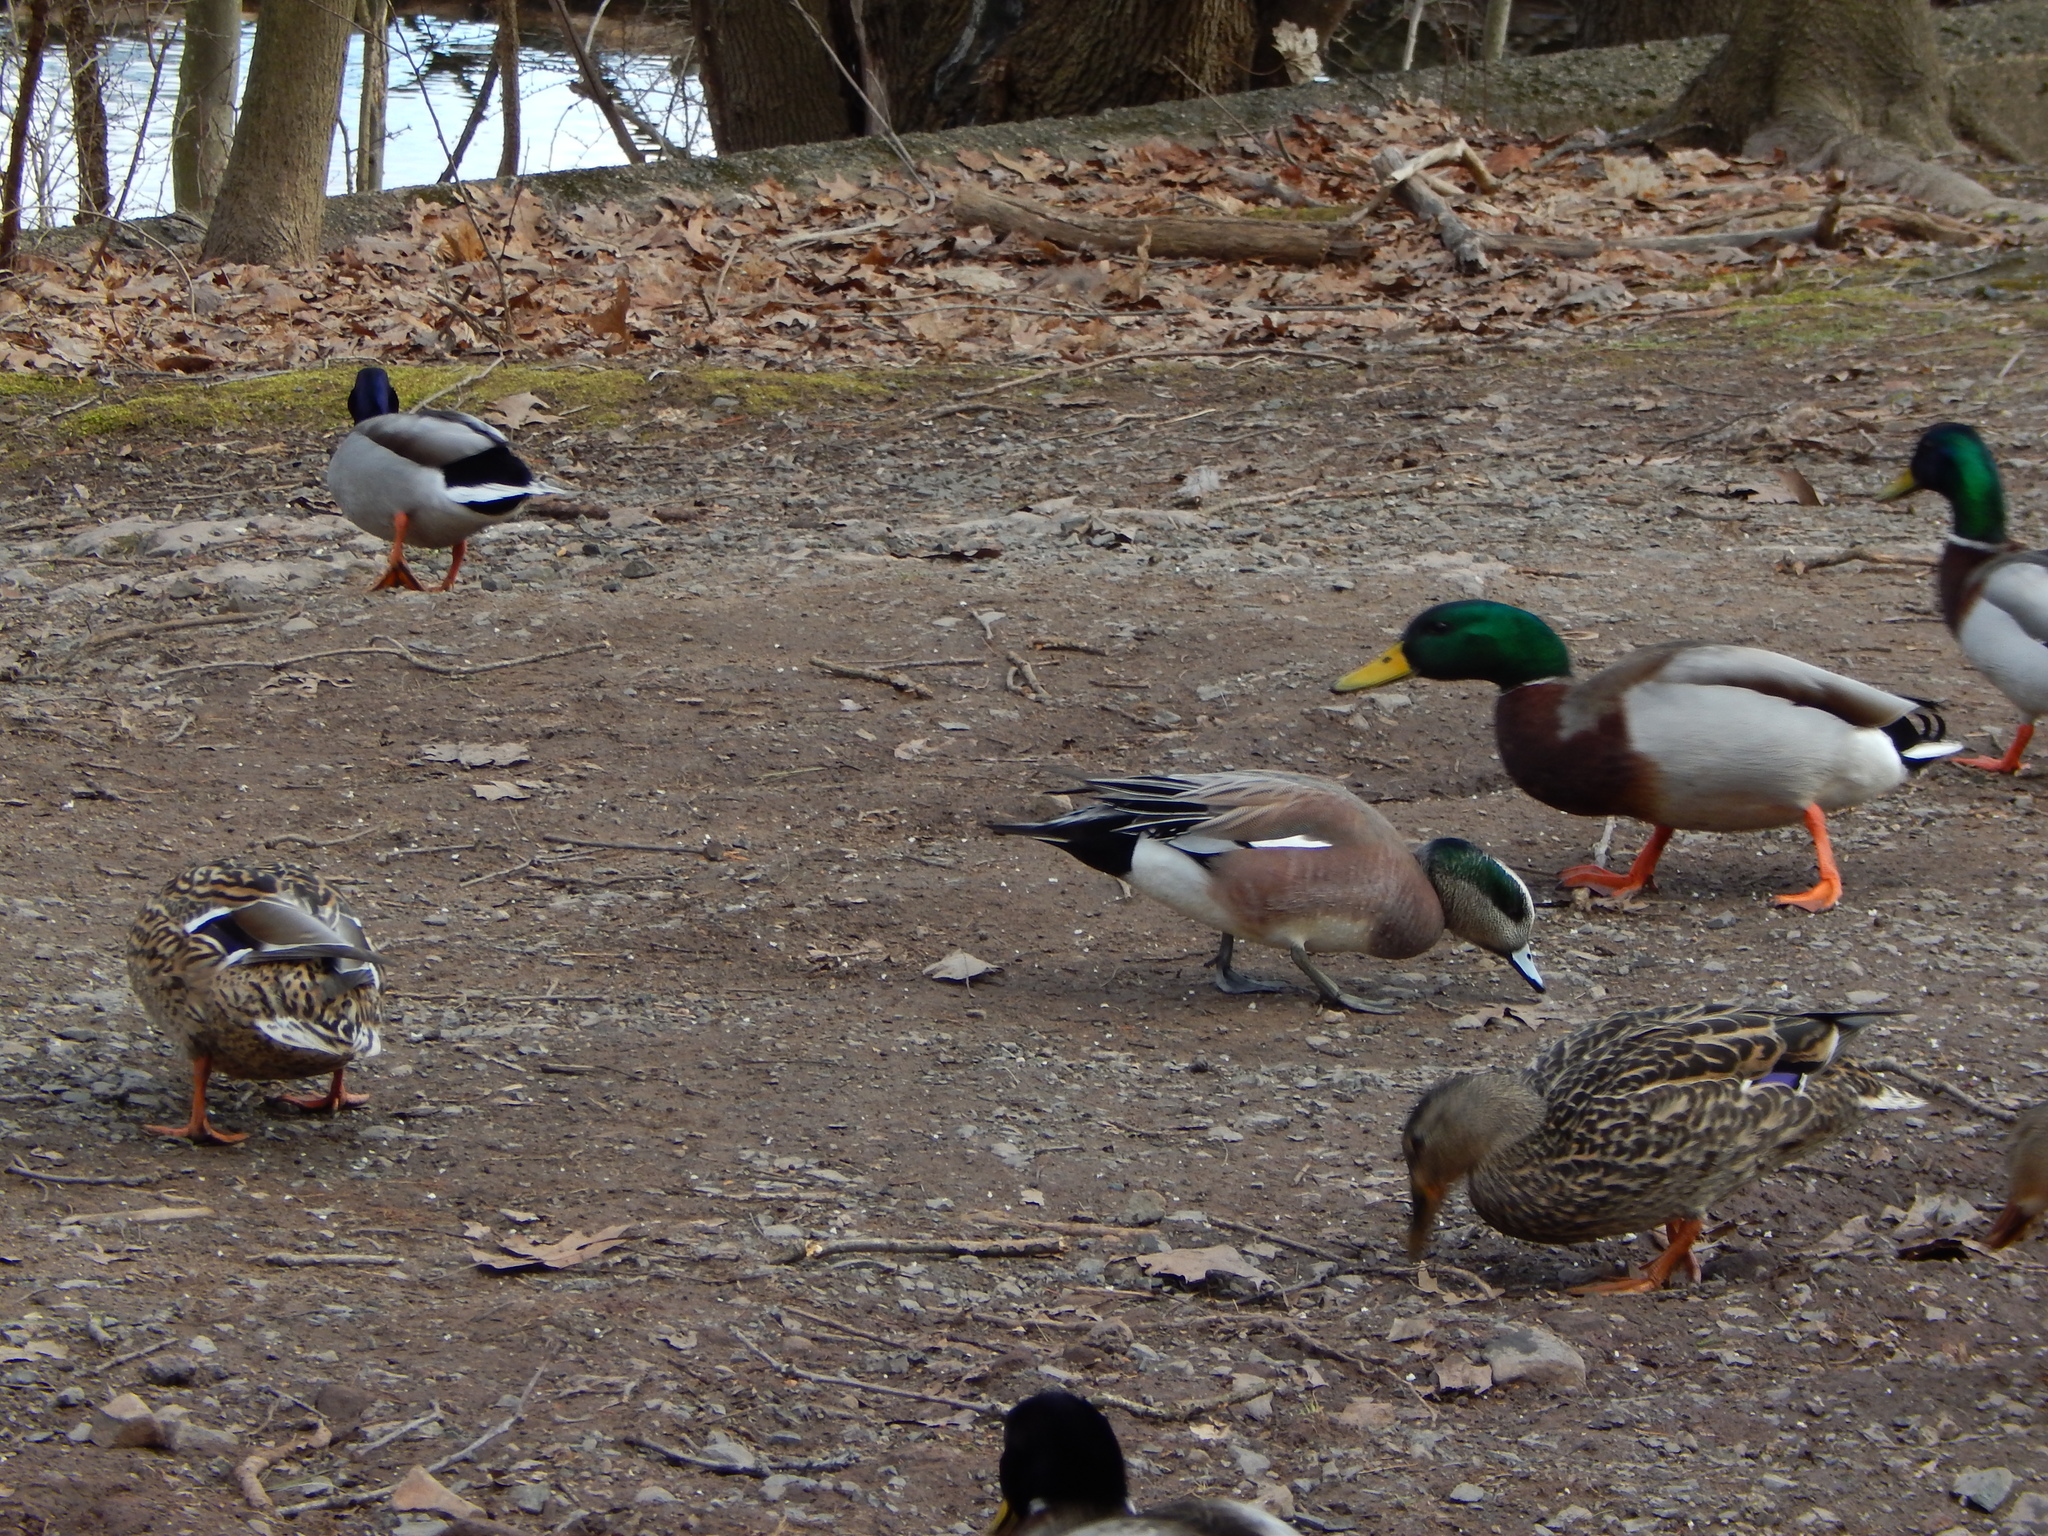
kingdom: Animalia
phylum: Chordata
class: Aves
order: Anseriformes
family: Anatidae
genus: Mareca
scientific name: Mareca americana
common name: American wigeon
